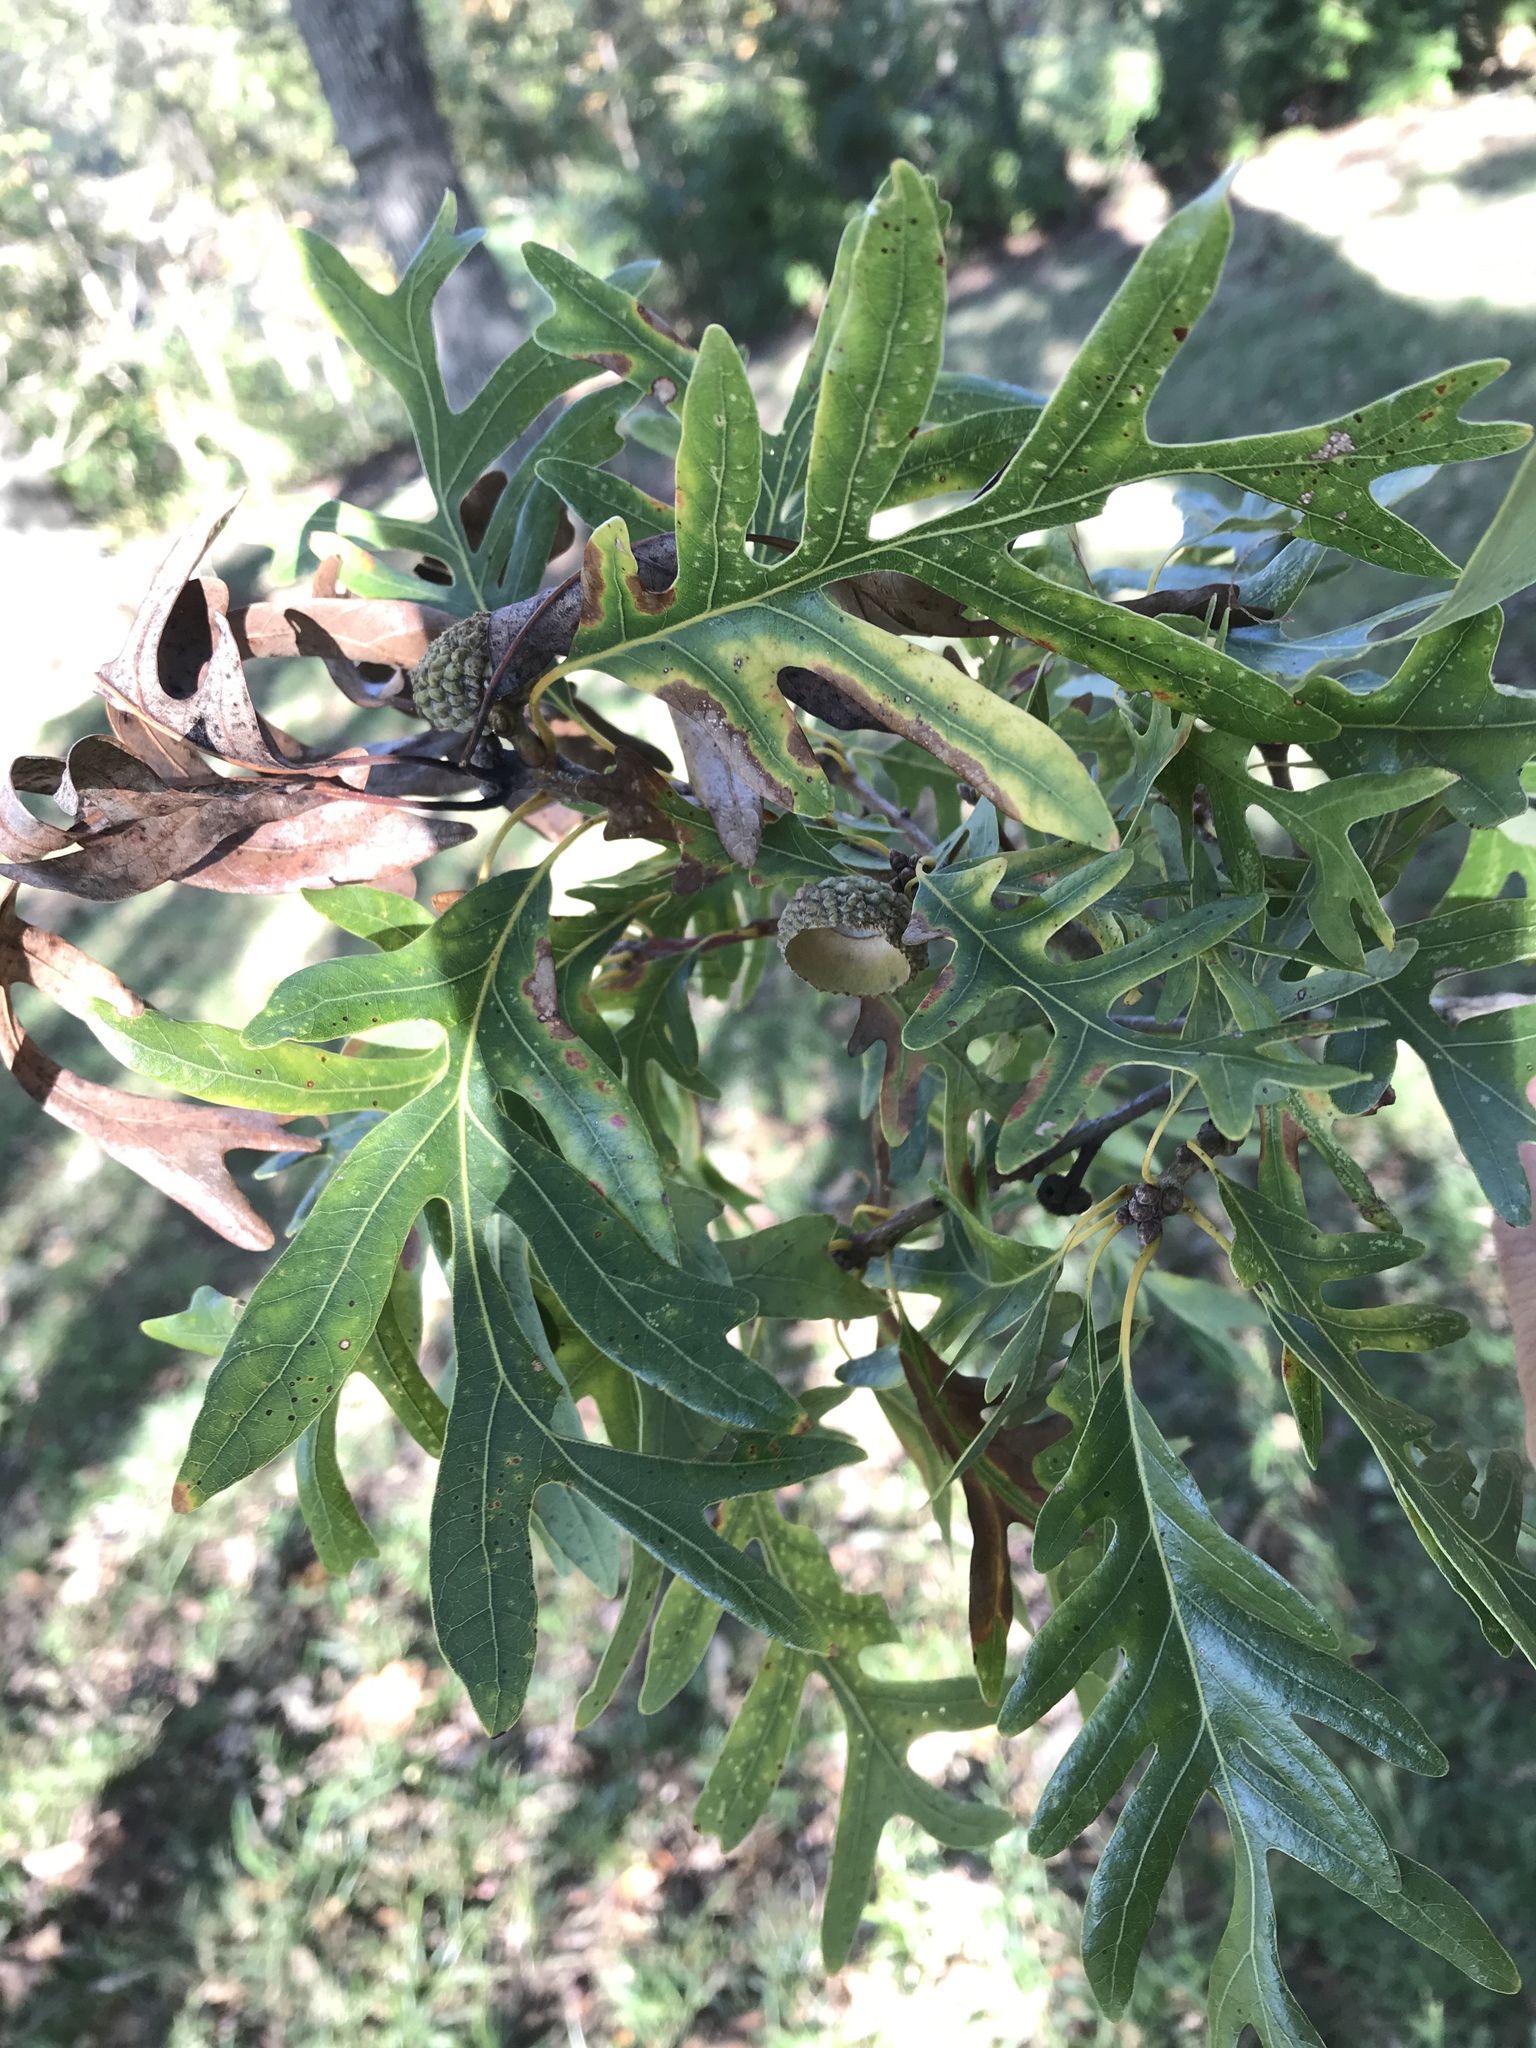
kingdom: Plantae
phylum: Tracheophyta
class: Magnoliopsida
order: Fagales
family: Fagaceae
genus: Quercus
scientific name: Quercus alba
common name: White oak
